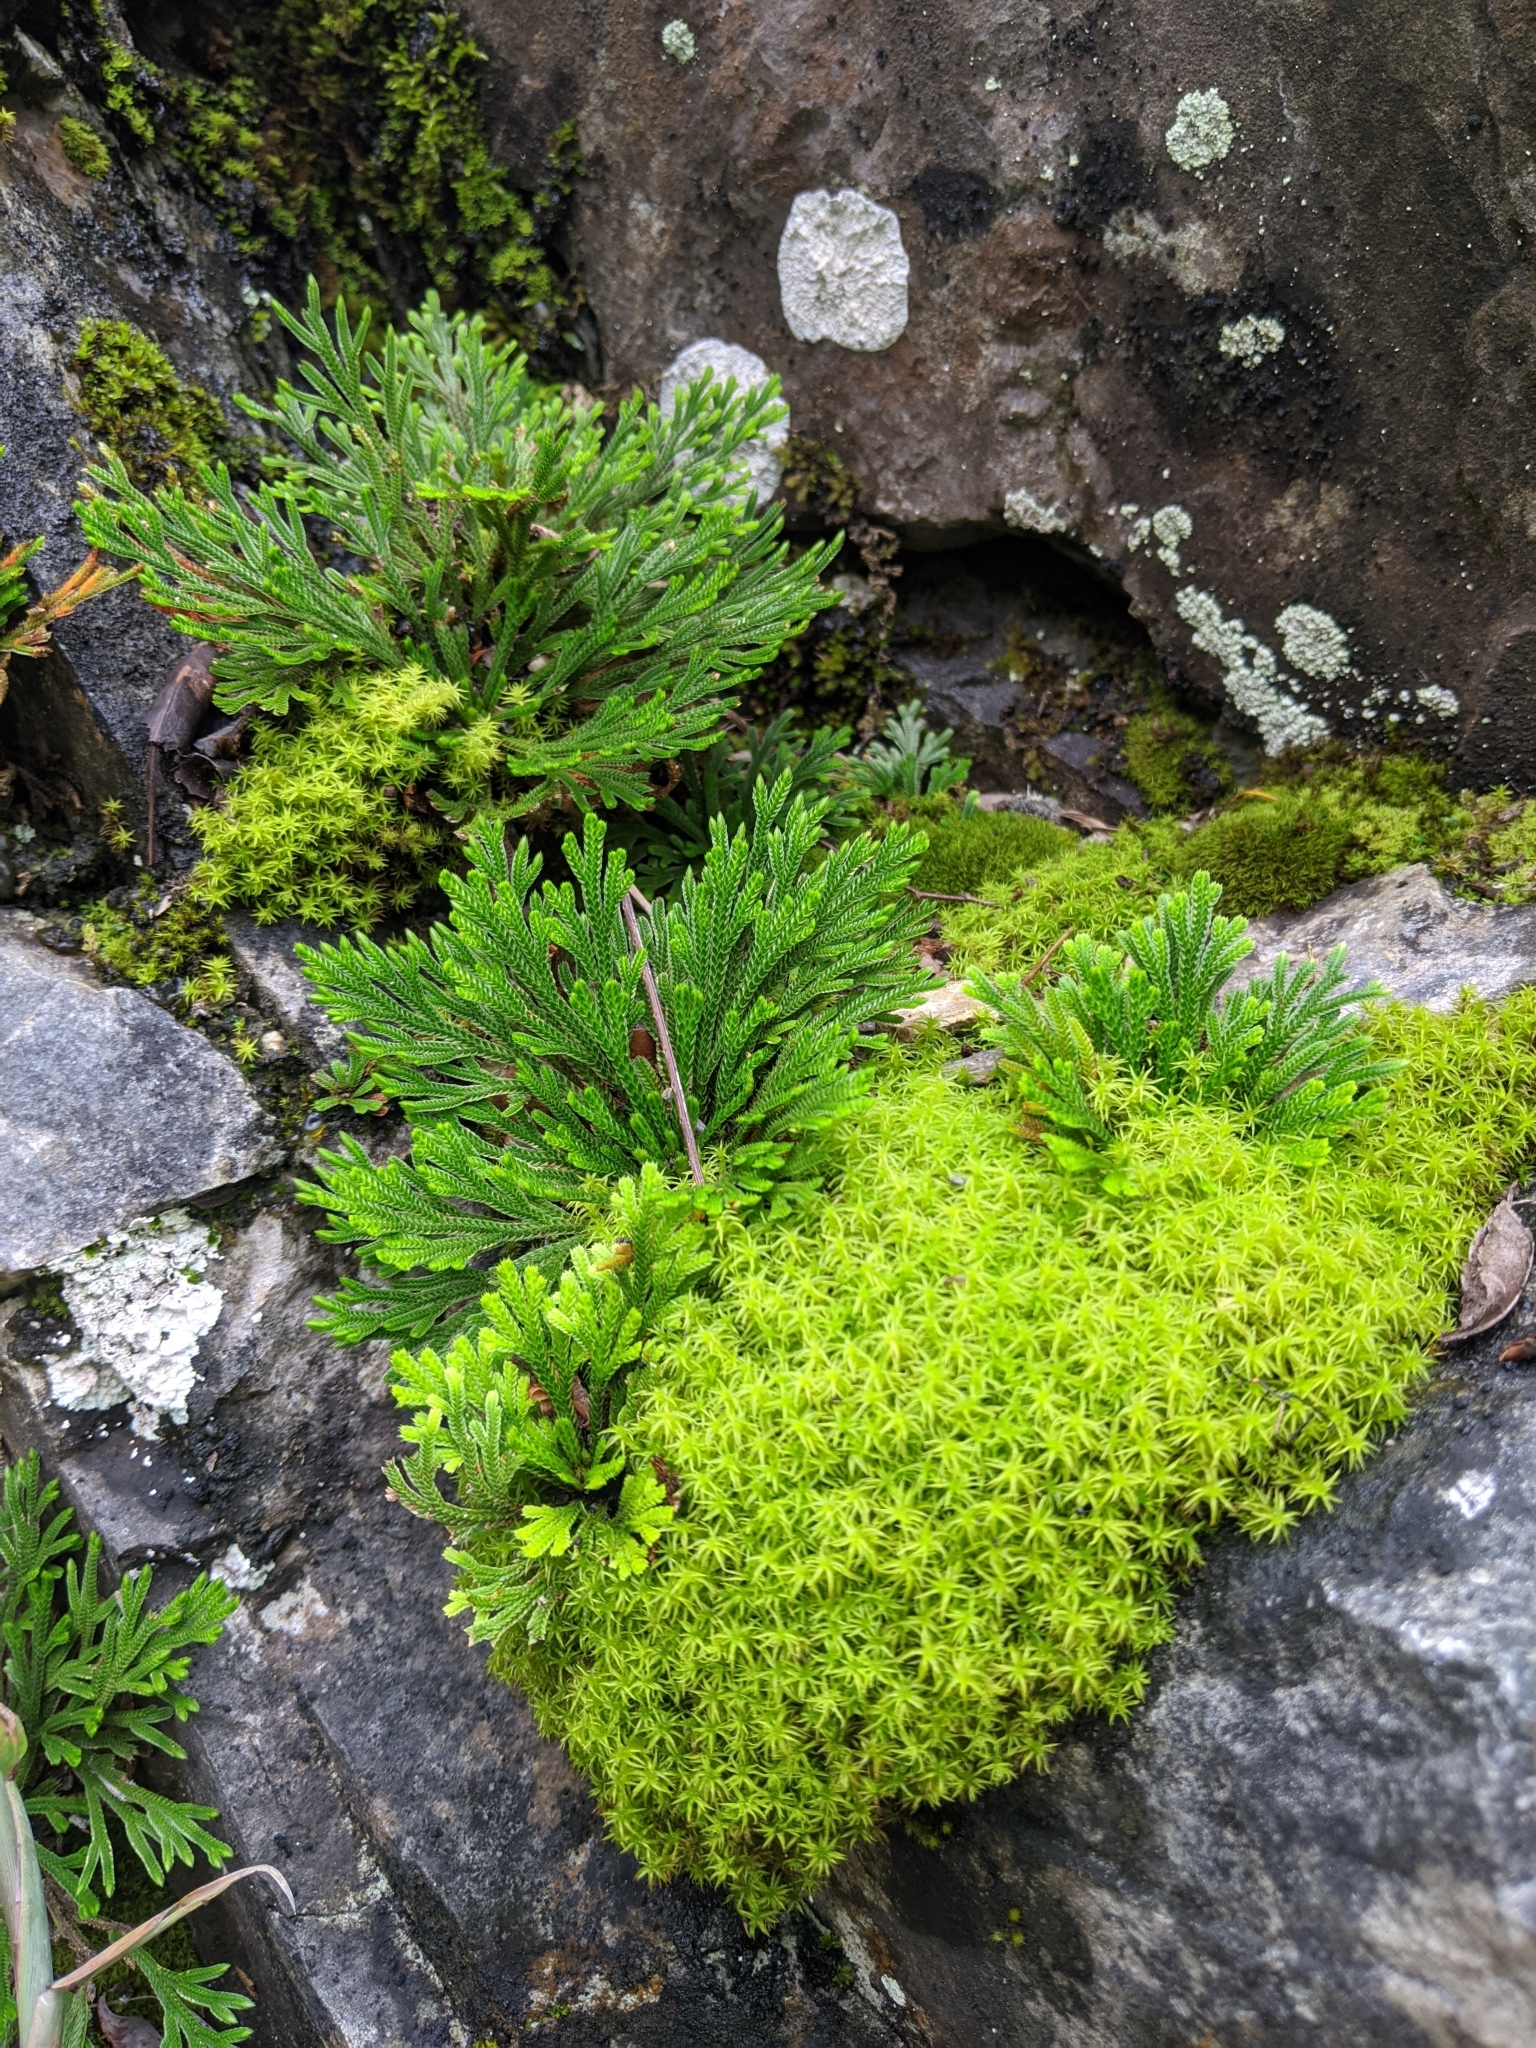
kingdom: Plantae
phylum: Tracheophyta
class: Lycopodiopsida
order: Selaginellales
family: Selaginellaceae
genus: Selaginella
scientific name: Selaginella tamariscina
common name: Little-club-moss
